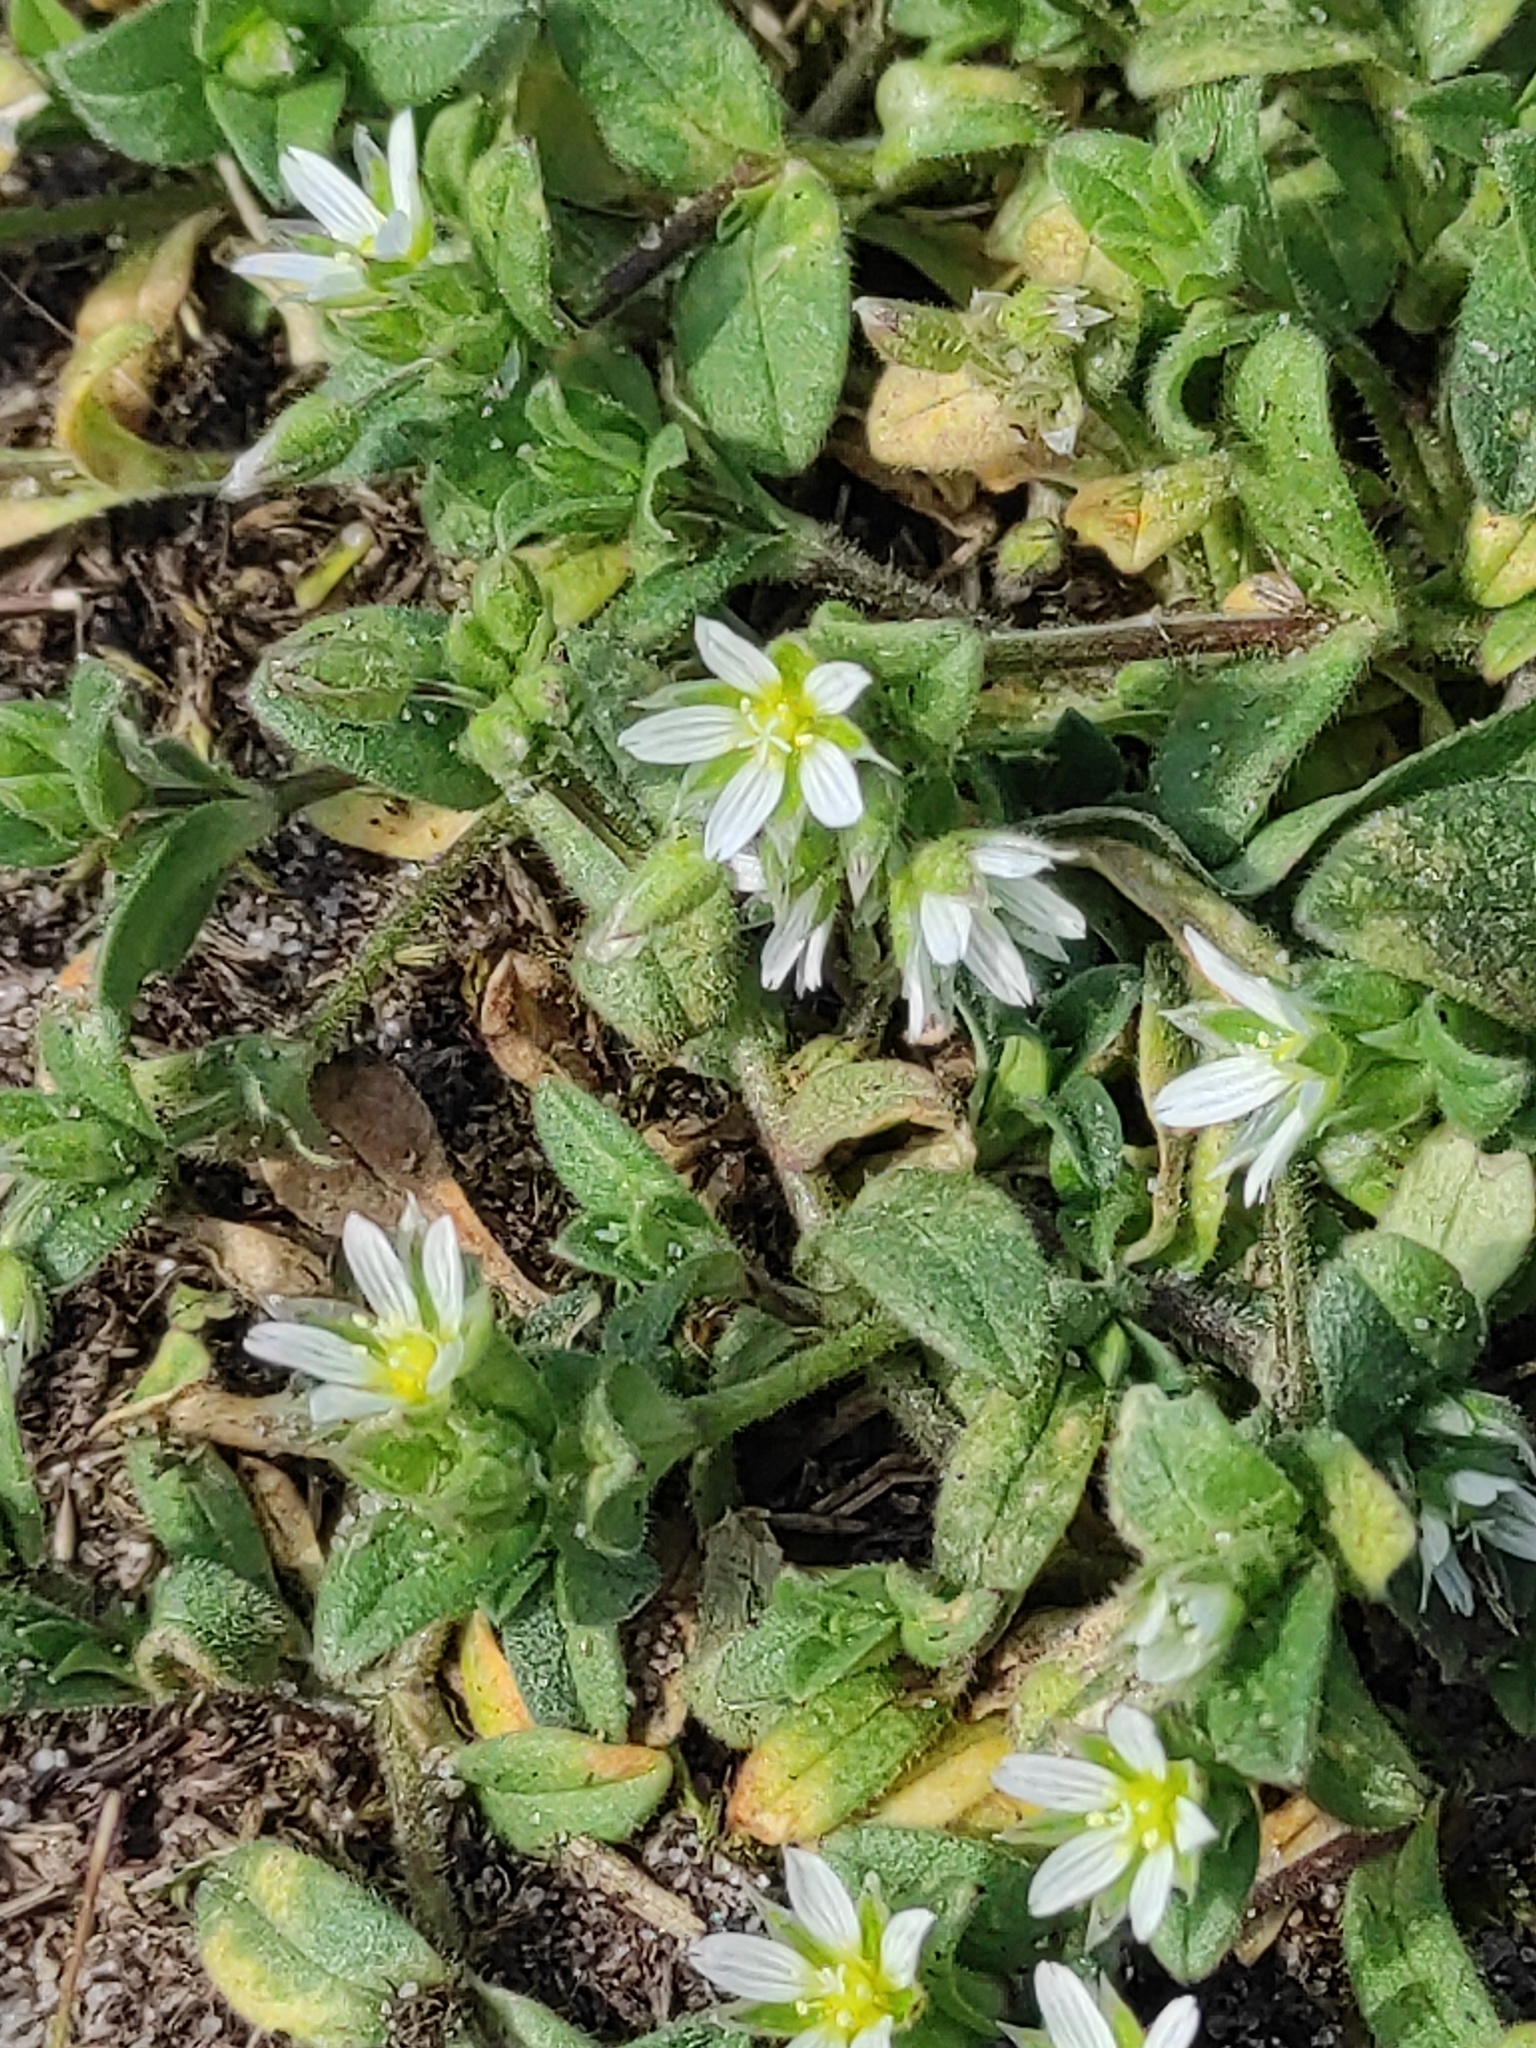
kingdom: Plantae
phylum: Tracheophyta
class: Magnoliopsida
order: Caryophyllales
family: Caryophyllaceae
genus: Cerastium
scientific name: Cerastium semidecandrum
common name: Little mouse-ear
